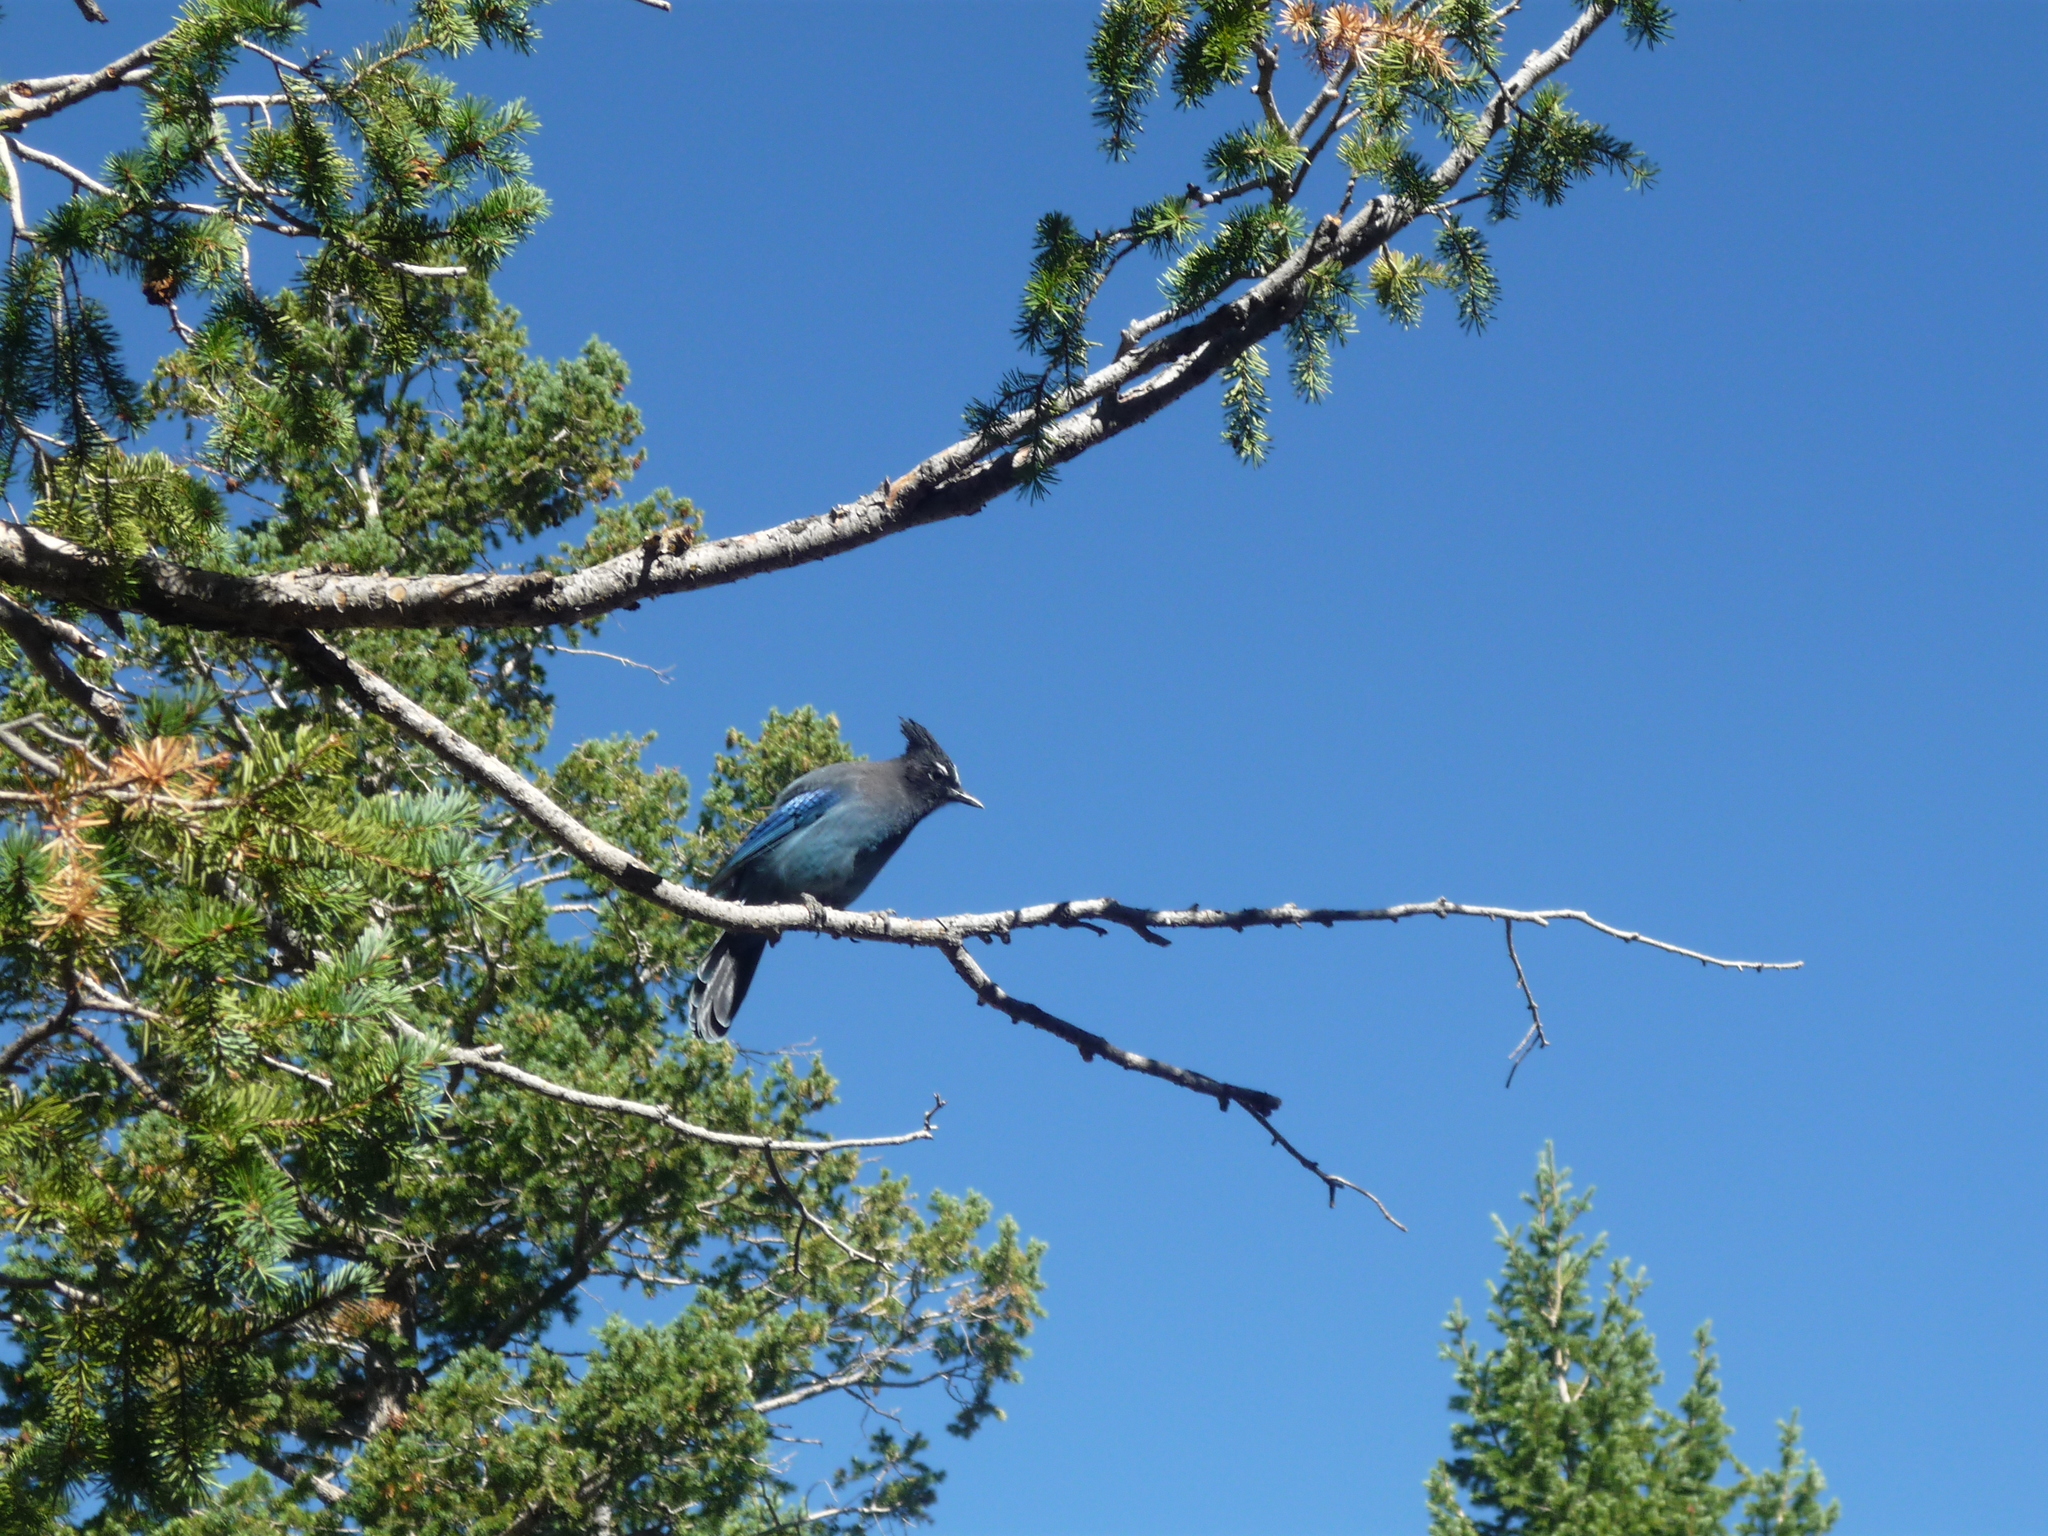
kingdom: Animalia
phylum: Chordata
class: Aves
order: Passeriformes
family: Corvidae
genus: Cyanocitta
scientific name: Cyanocitta stelleri
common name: Steller's jay
